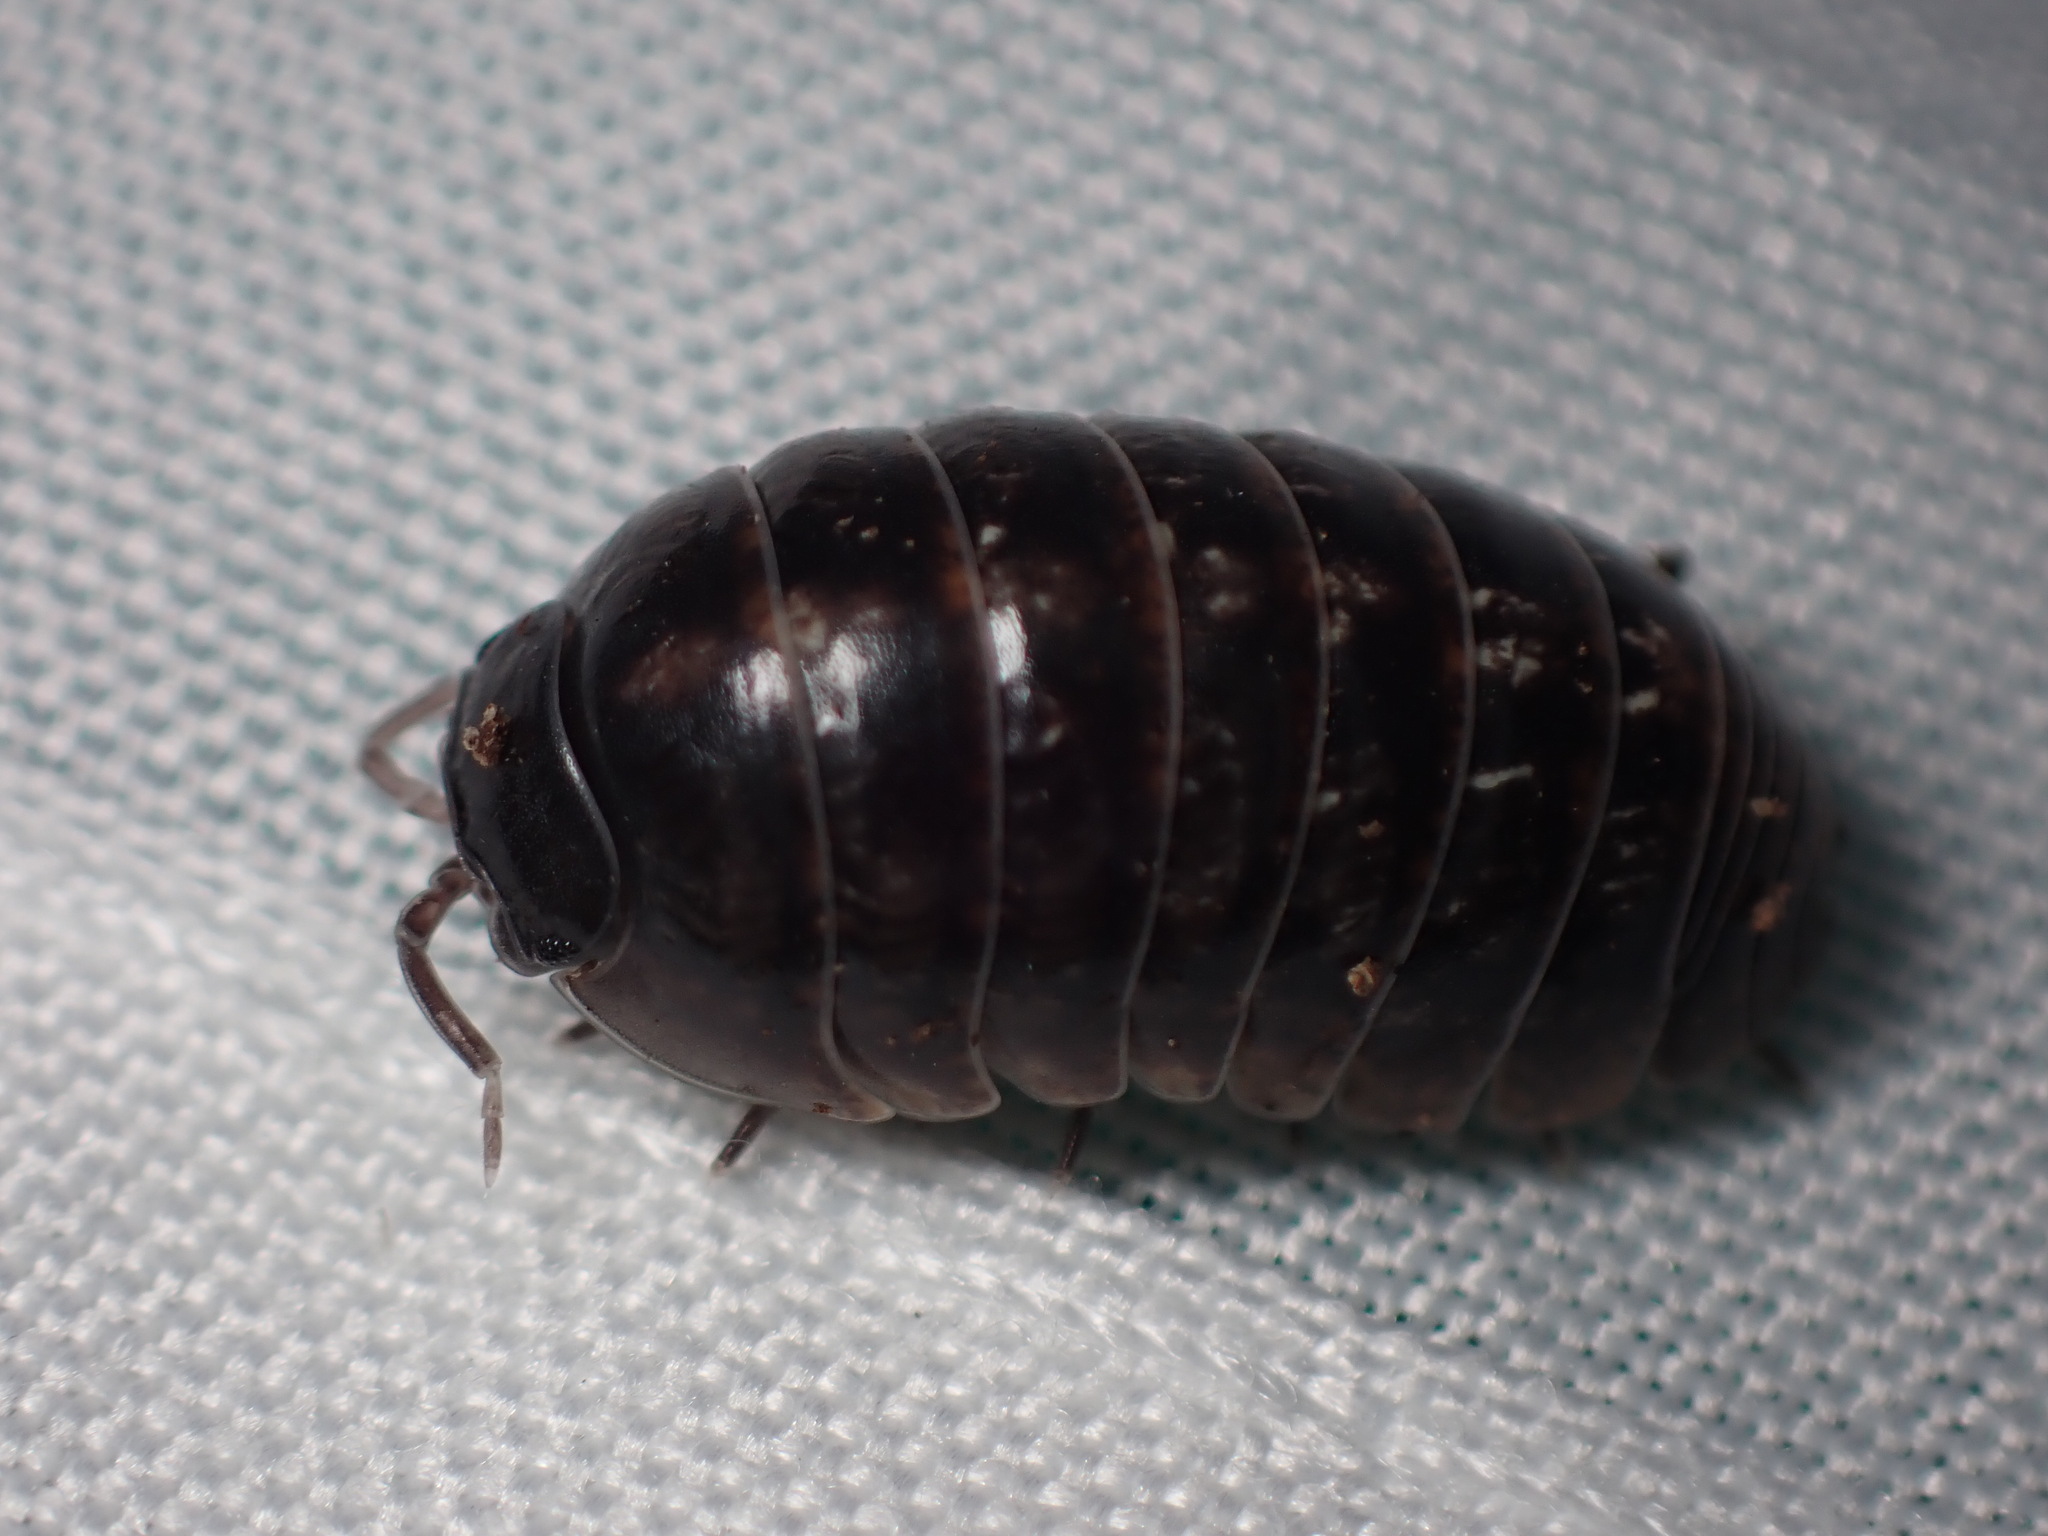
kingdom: Animalia
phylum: Arthropoda
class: Malacostraca
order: Isopoda
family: Armadillidiidae
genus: Armadillidium
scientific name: Armadillidium vulgare
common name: Common pill woodlouse
